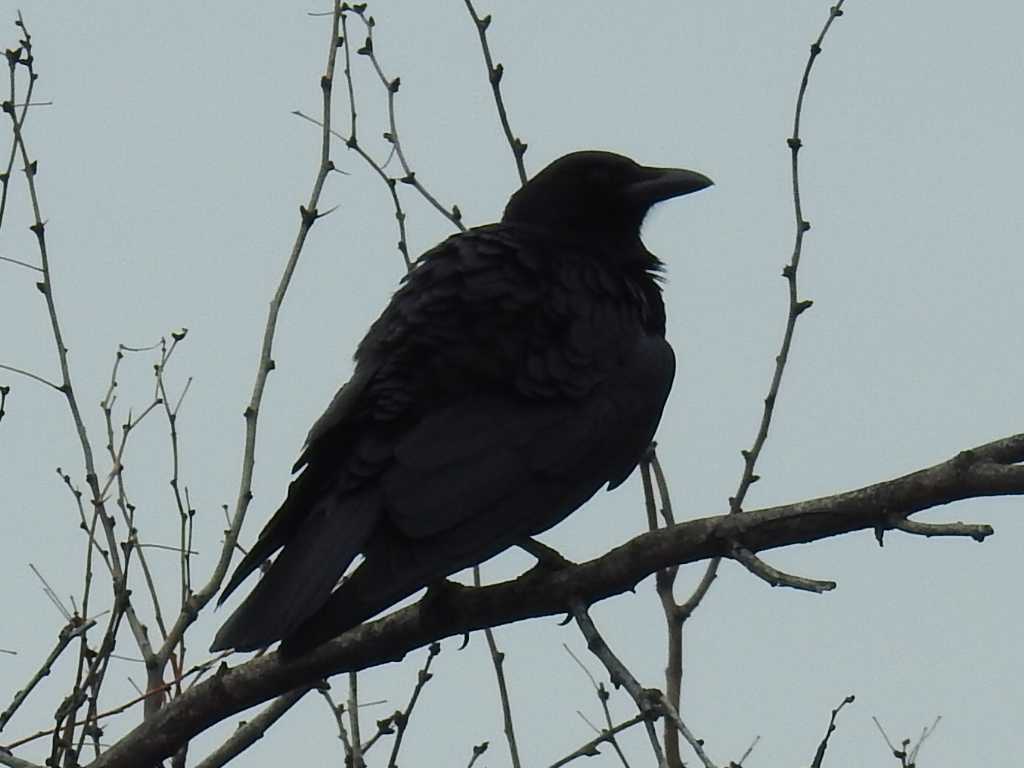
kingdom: Animalia
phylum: Chordata
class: Aves
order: Passeriformes
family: Corvidae
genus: Corvus
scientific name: Corvus brachyrhynchos
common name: American crow
